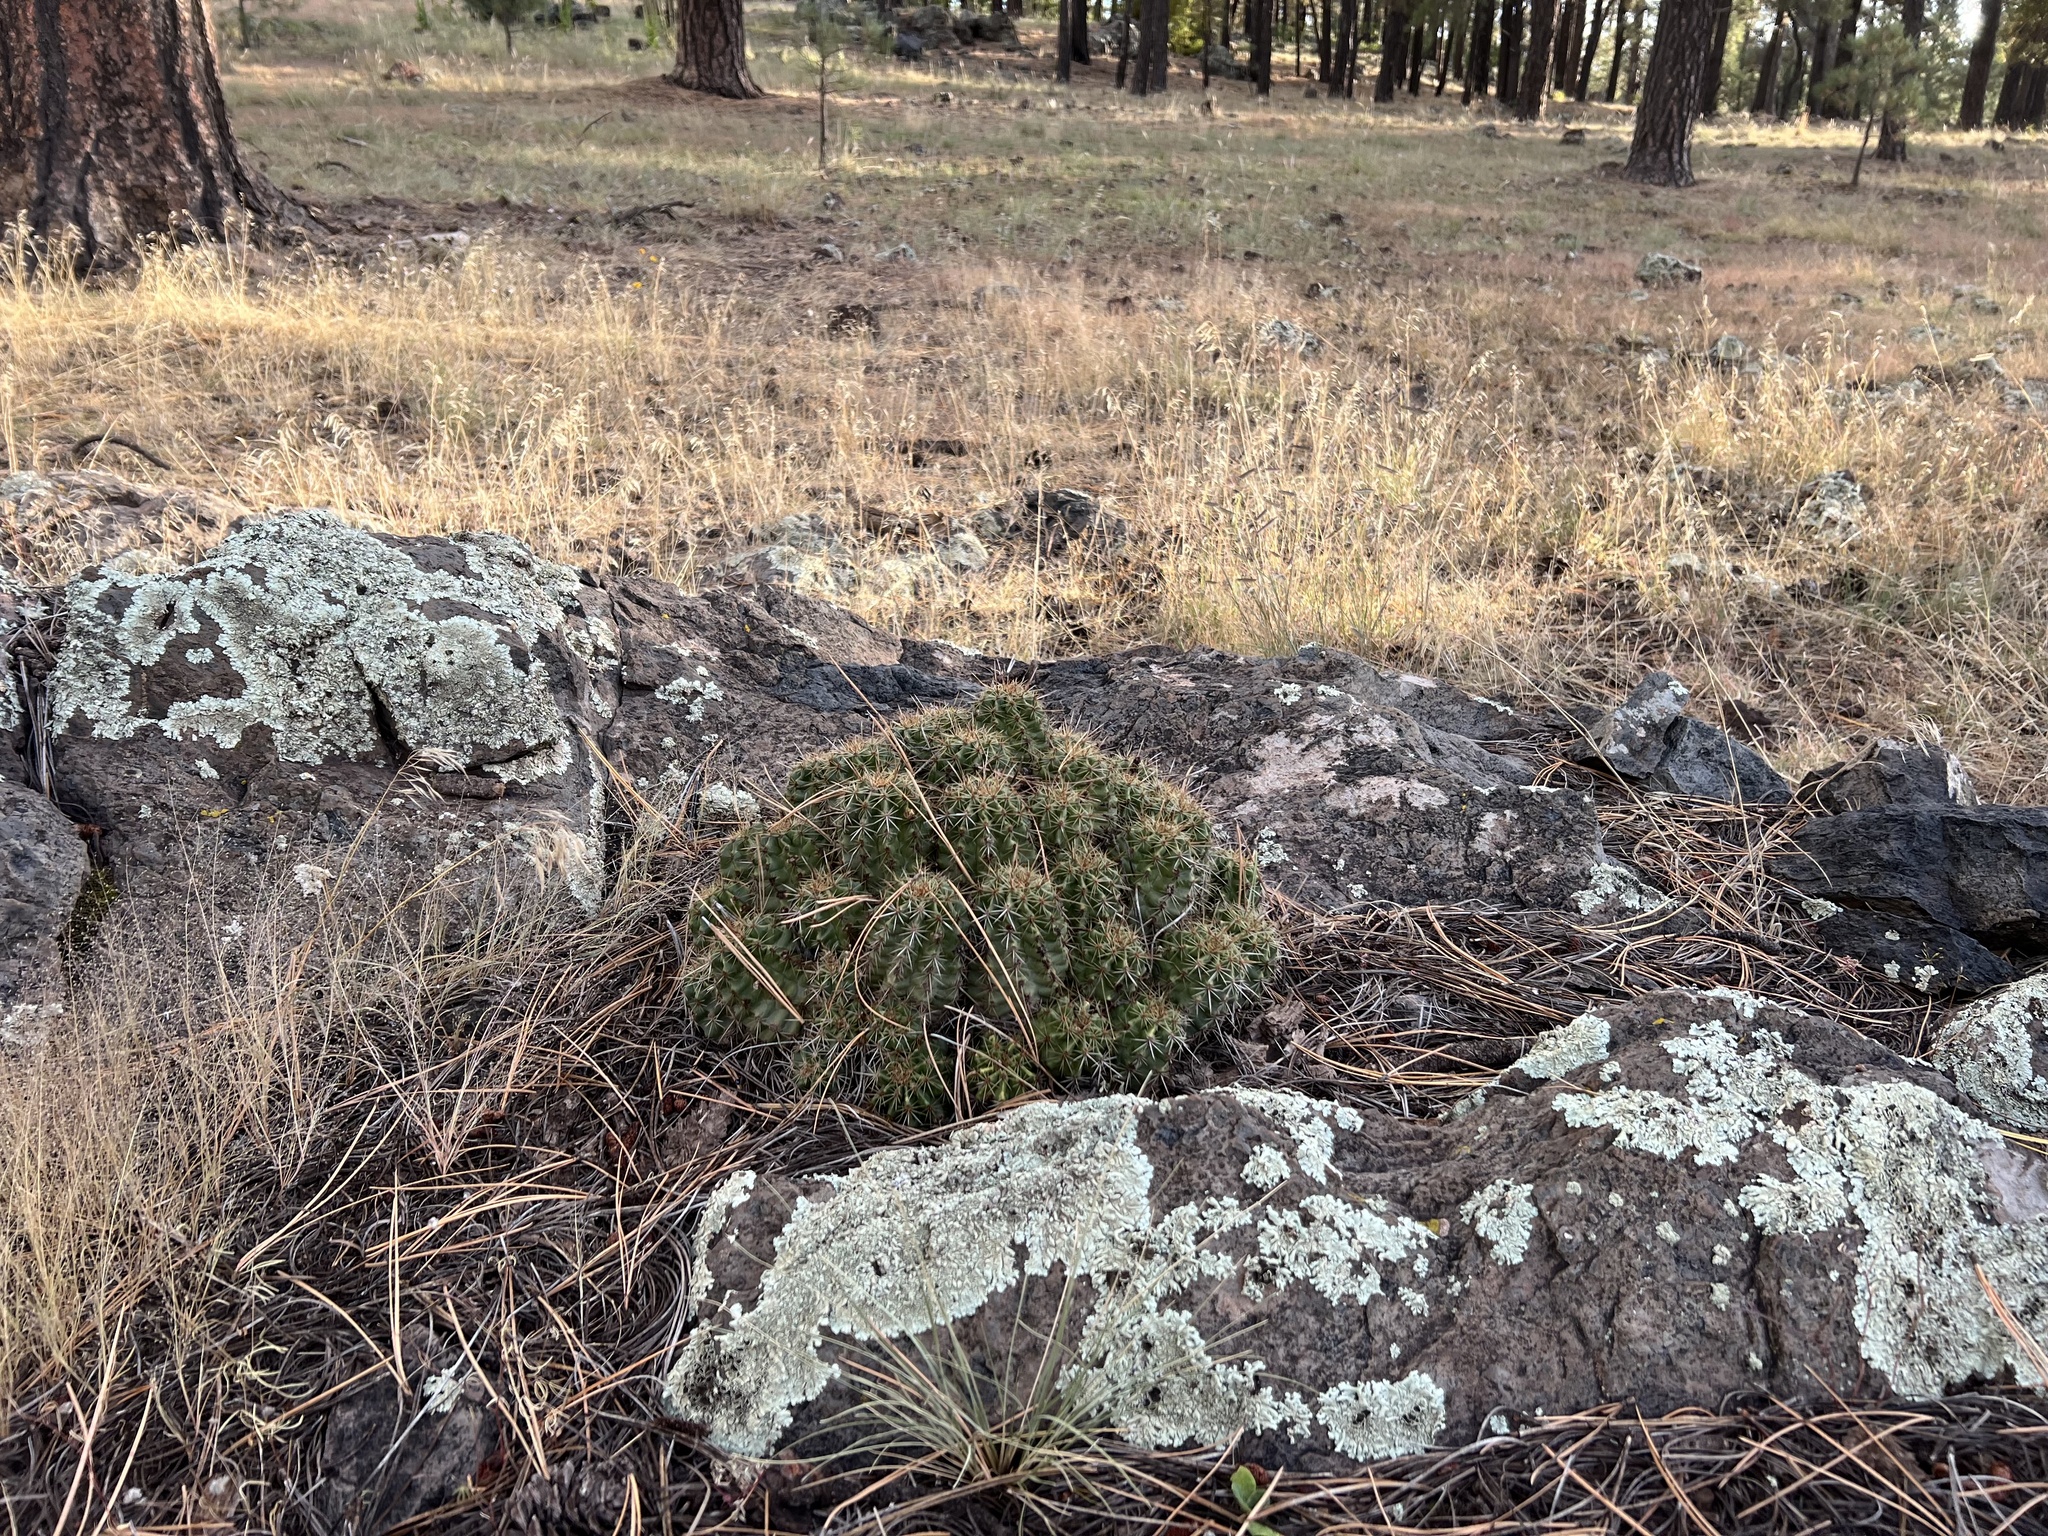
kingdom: Plantae
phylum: Tracheophyta
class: Magnoliopsida
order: Caryophyllales
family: Cactaceae
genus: Echinocereus
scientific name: Echinocereus bakeri
